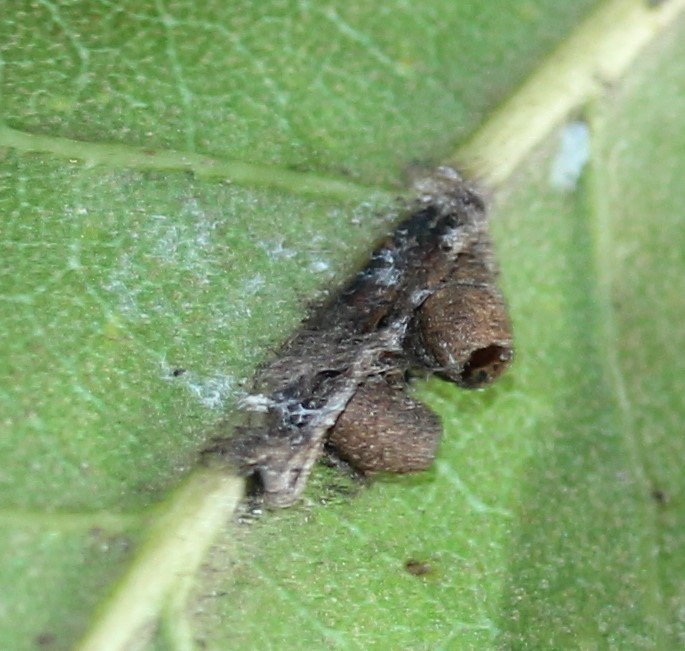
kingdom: Animalia
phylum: Arthropoda
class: Insecta
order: Hymenoptera
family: Cynipidae
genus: Andricus
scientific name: Andricus Druon quercuslanigerum
